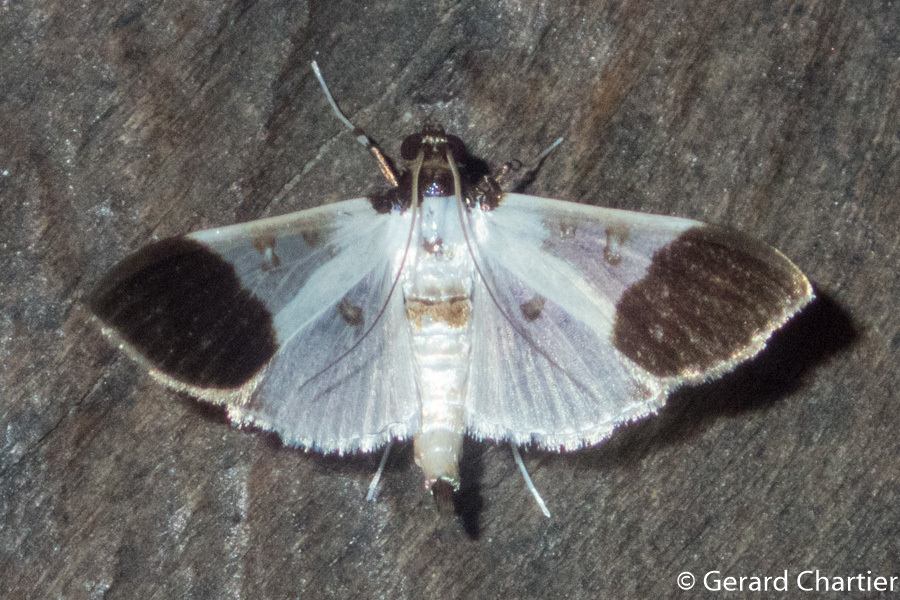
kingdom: Animalia
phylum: Arthropoda
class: Insecta
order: Lepidoptera
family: Crambidae
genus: Palpita
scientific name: Palpita nigricollis
